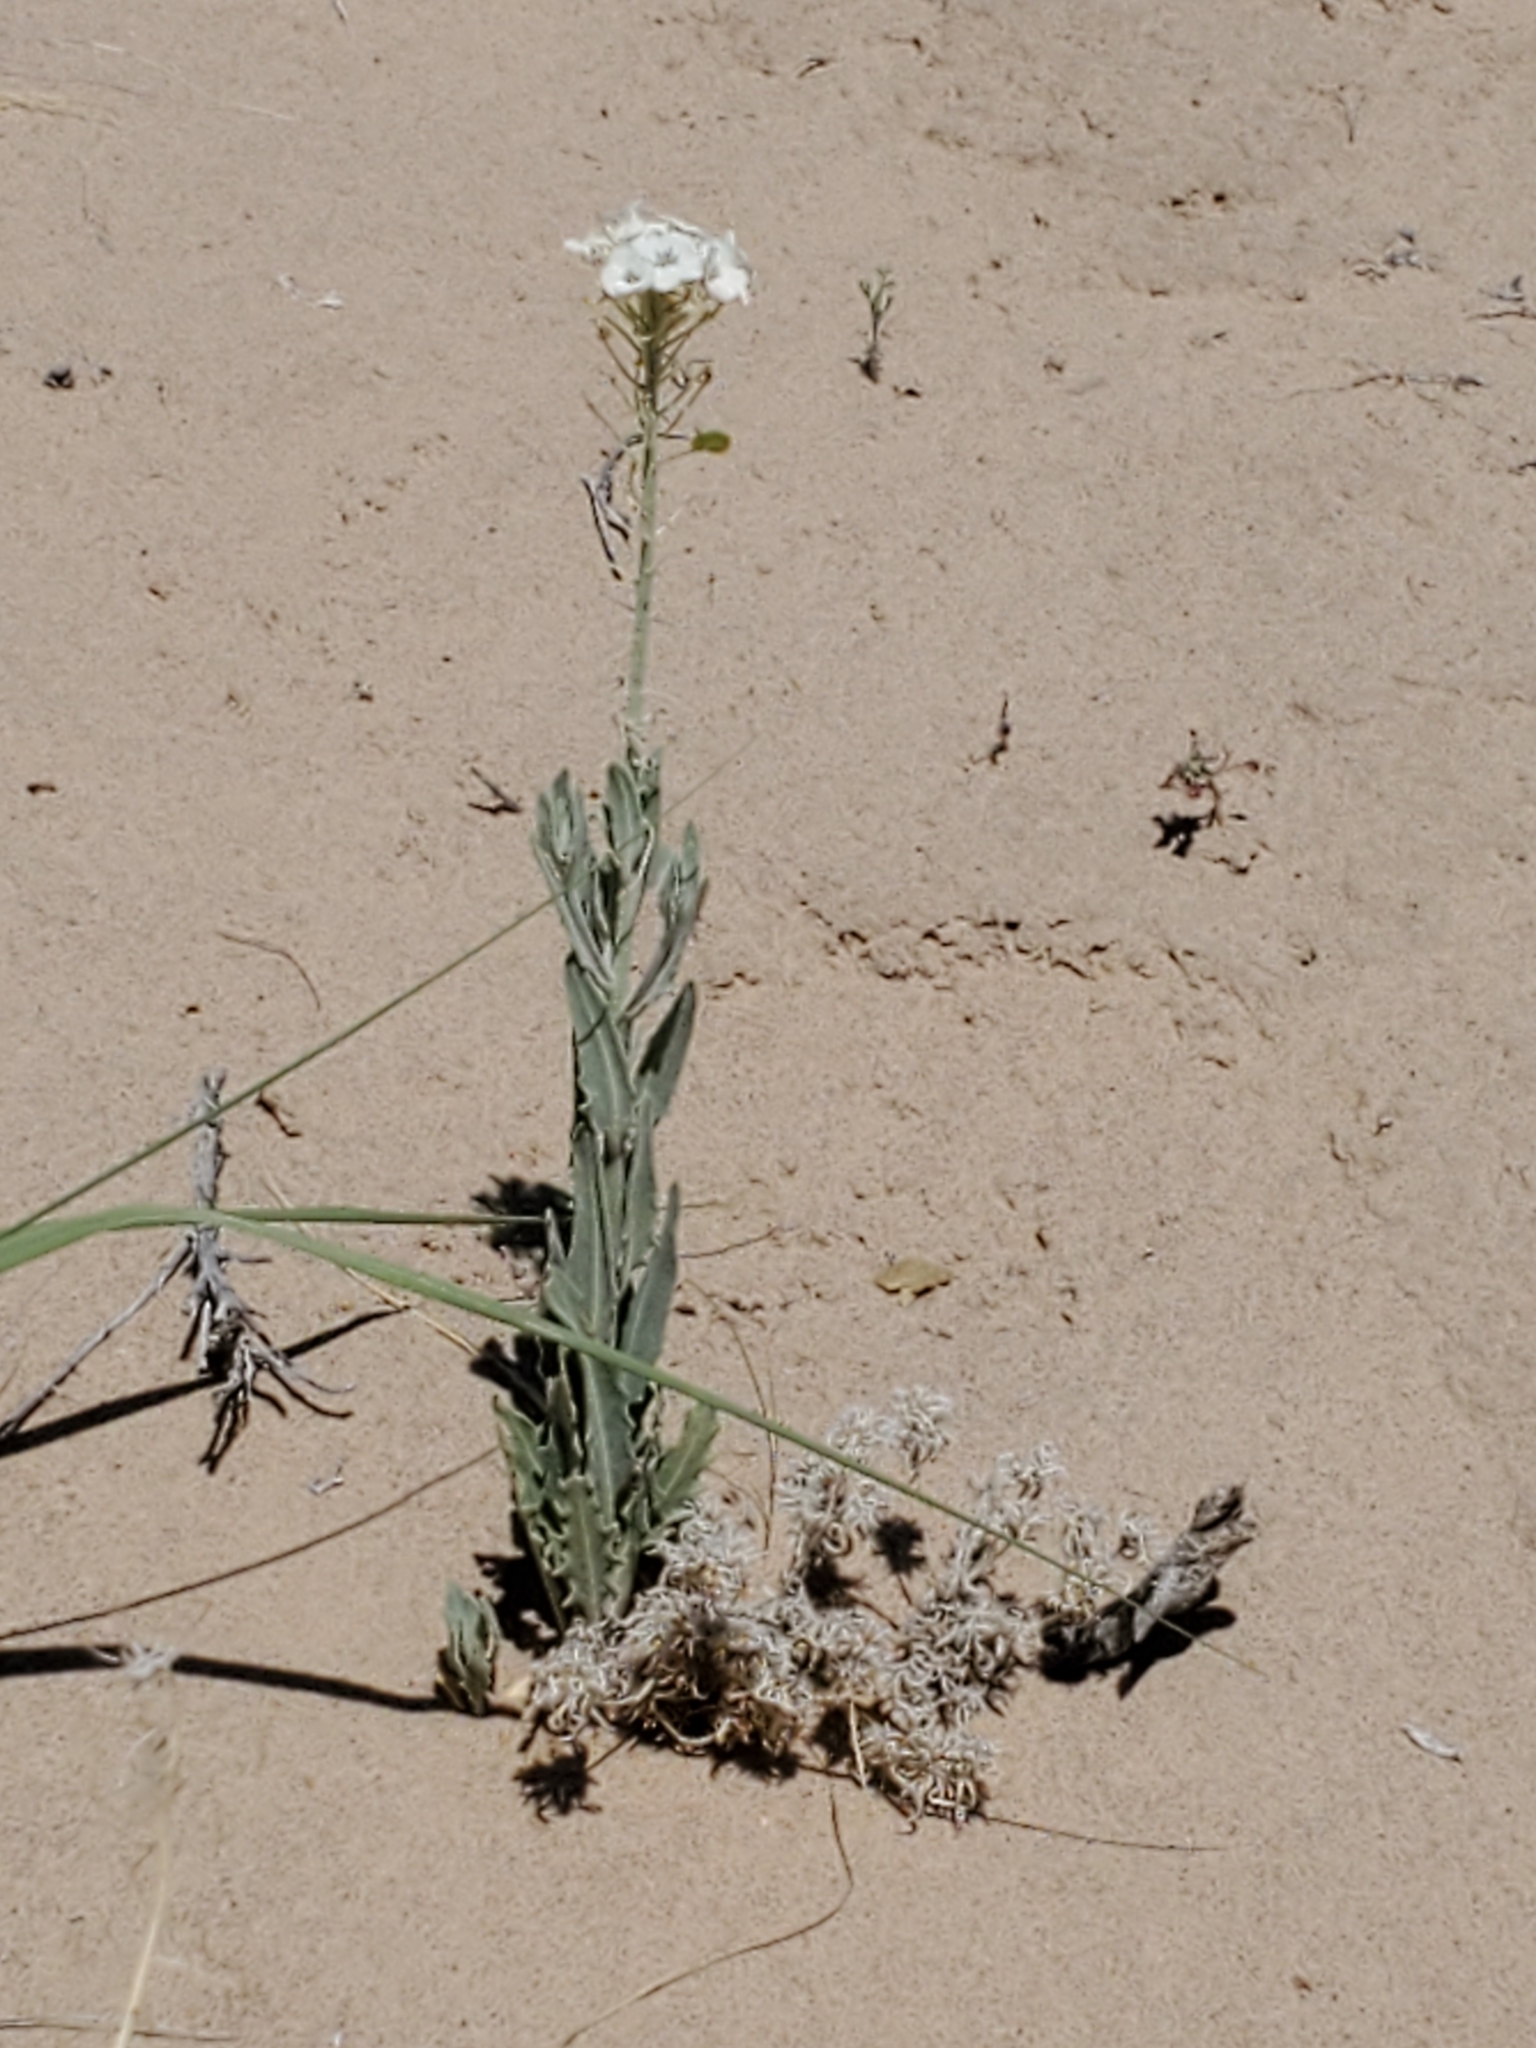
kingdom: Plantae
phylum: Tracheophyta
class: Magnoliopsida
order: Brassicales
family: Brassicaceae
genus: Dimorphocarpa
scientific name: Dimorphocarpa wislizenii
